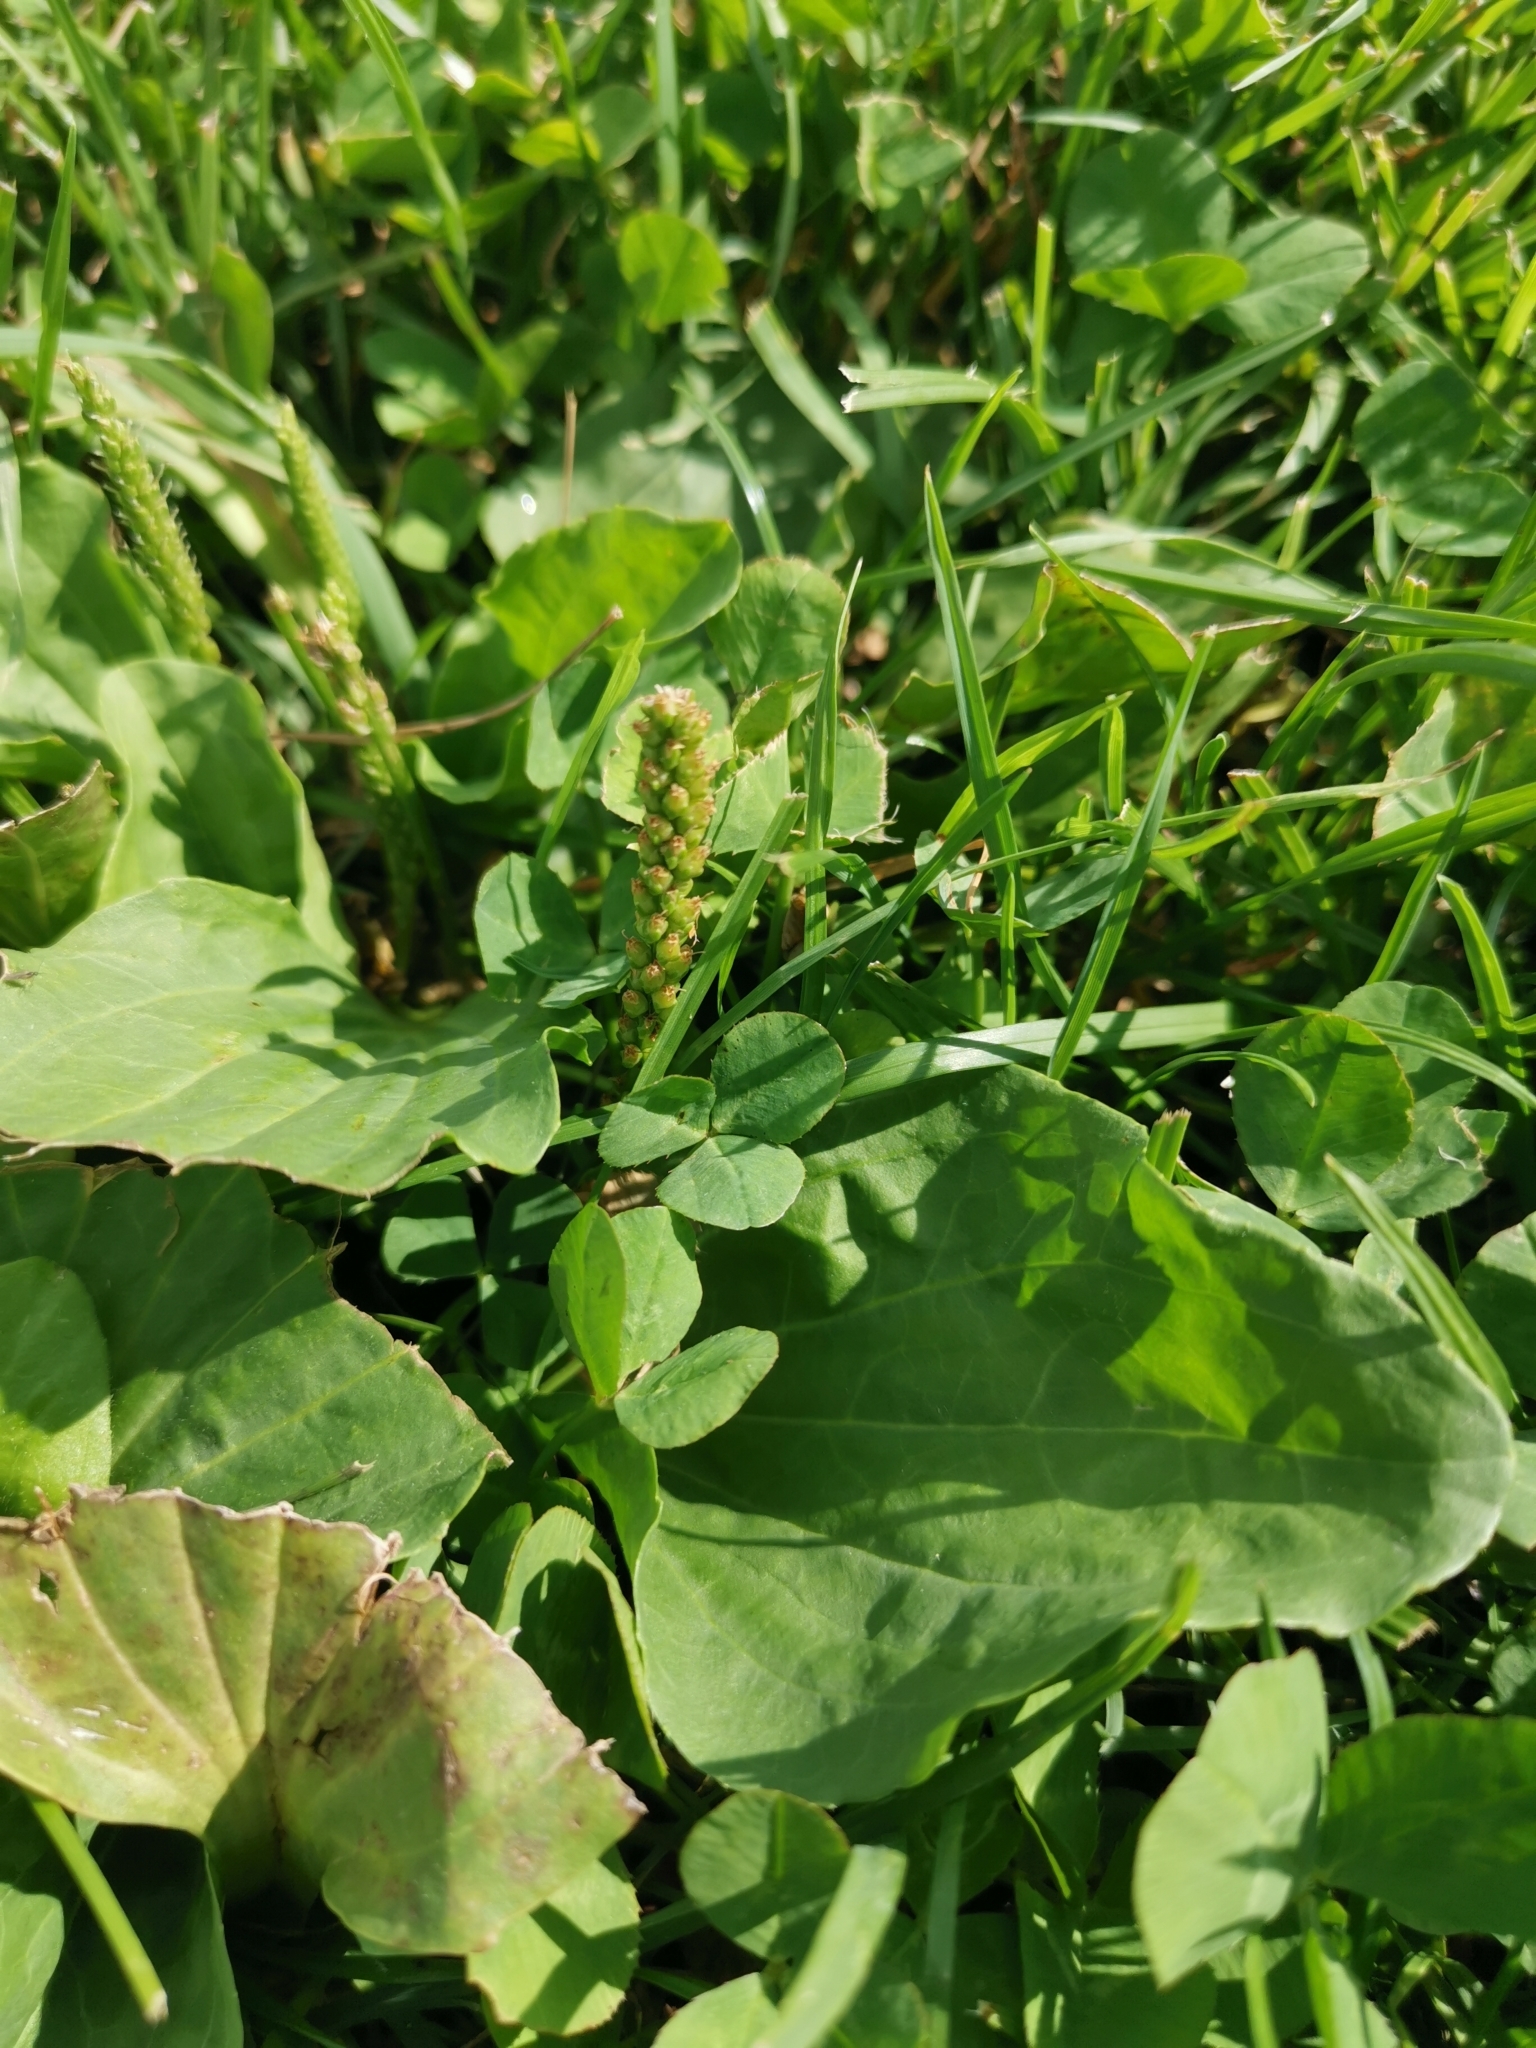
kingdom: Plantae
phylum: Tracheophyta
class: Magnoliopsida
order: Lamiales
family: Plantaginaceae
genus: Plantago
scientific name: Plantago major
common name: Common plantain
